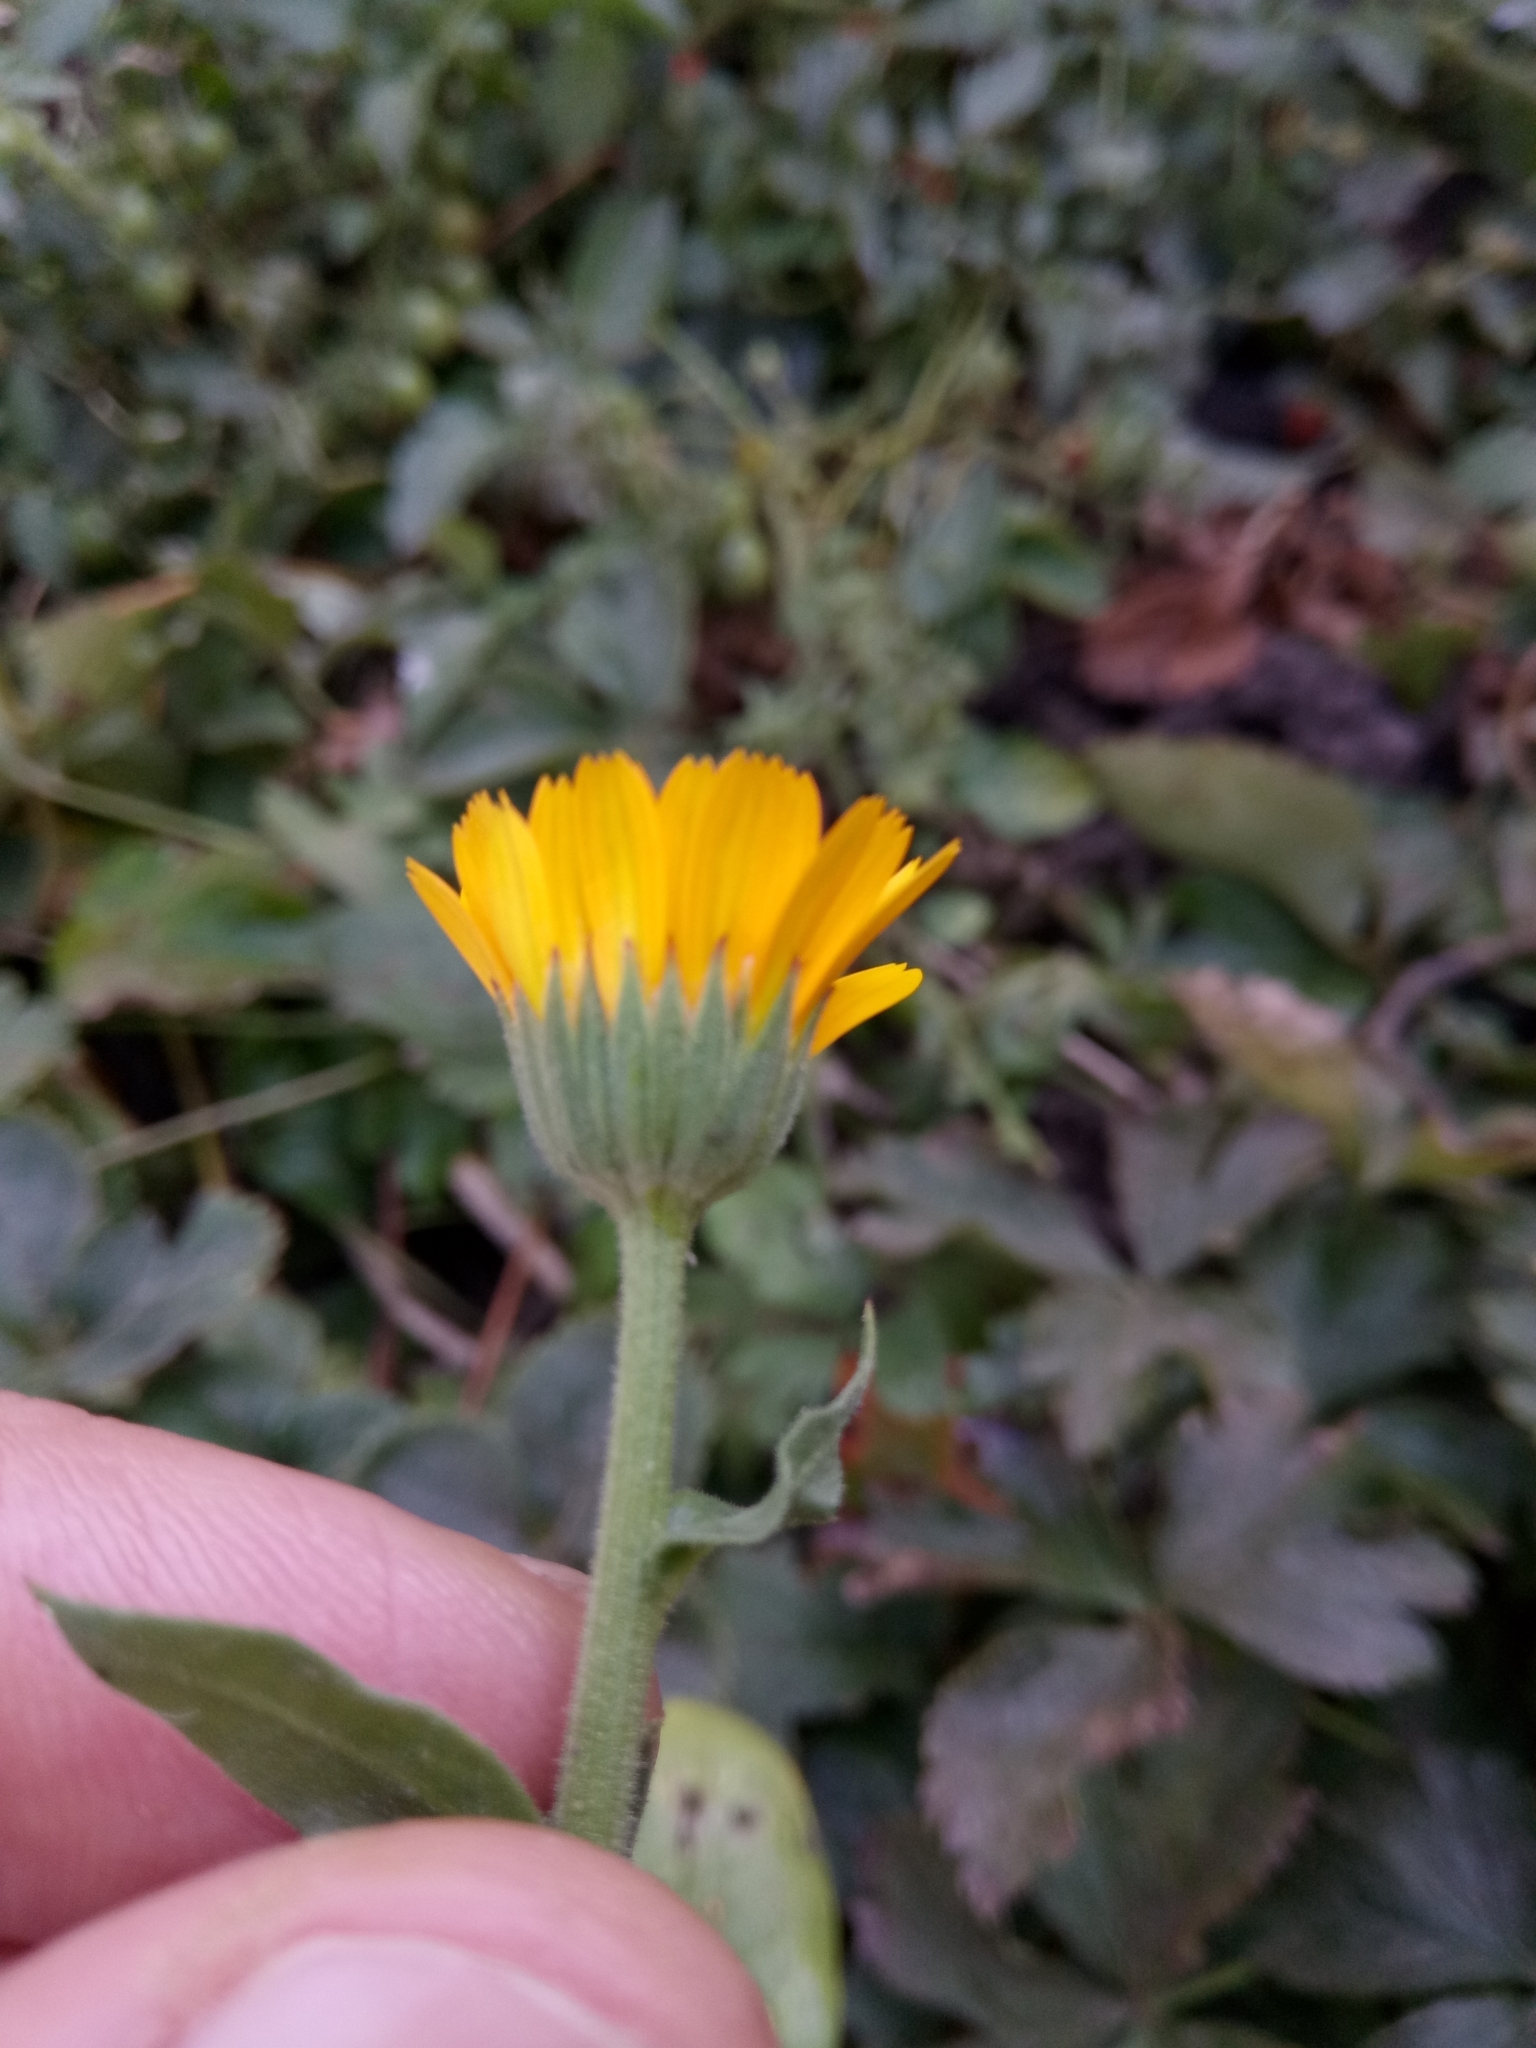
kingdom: Plantae
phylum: Tracheophyta
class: Magnoliopsida
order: Asterales
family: Asteraceae
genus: Calendula
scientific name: Calendula officinalis
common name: Pot marigold
